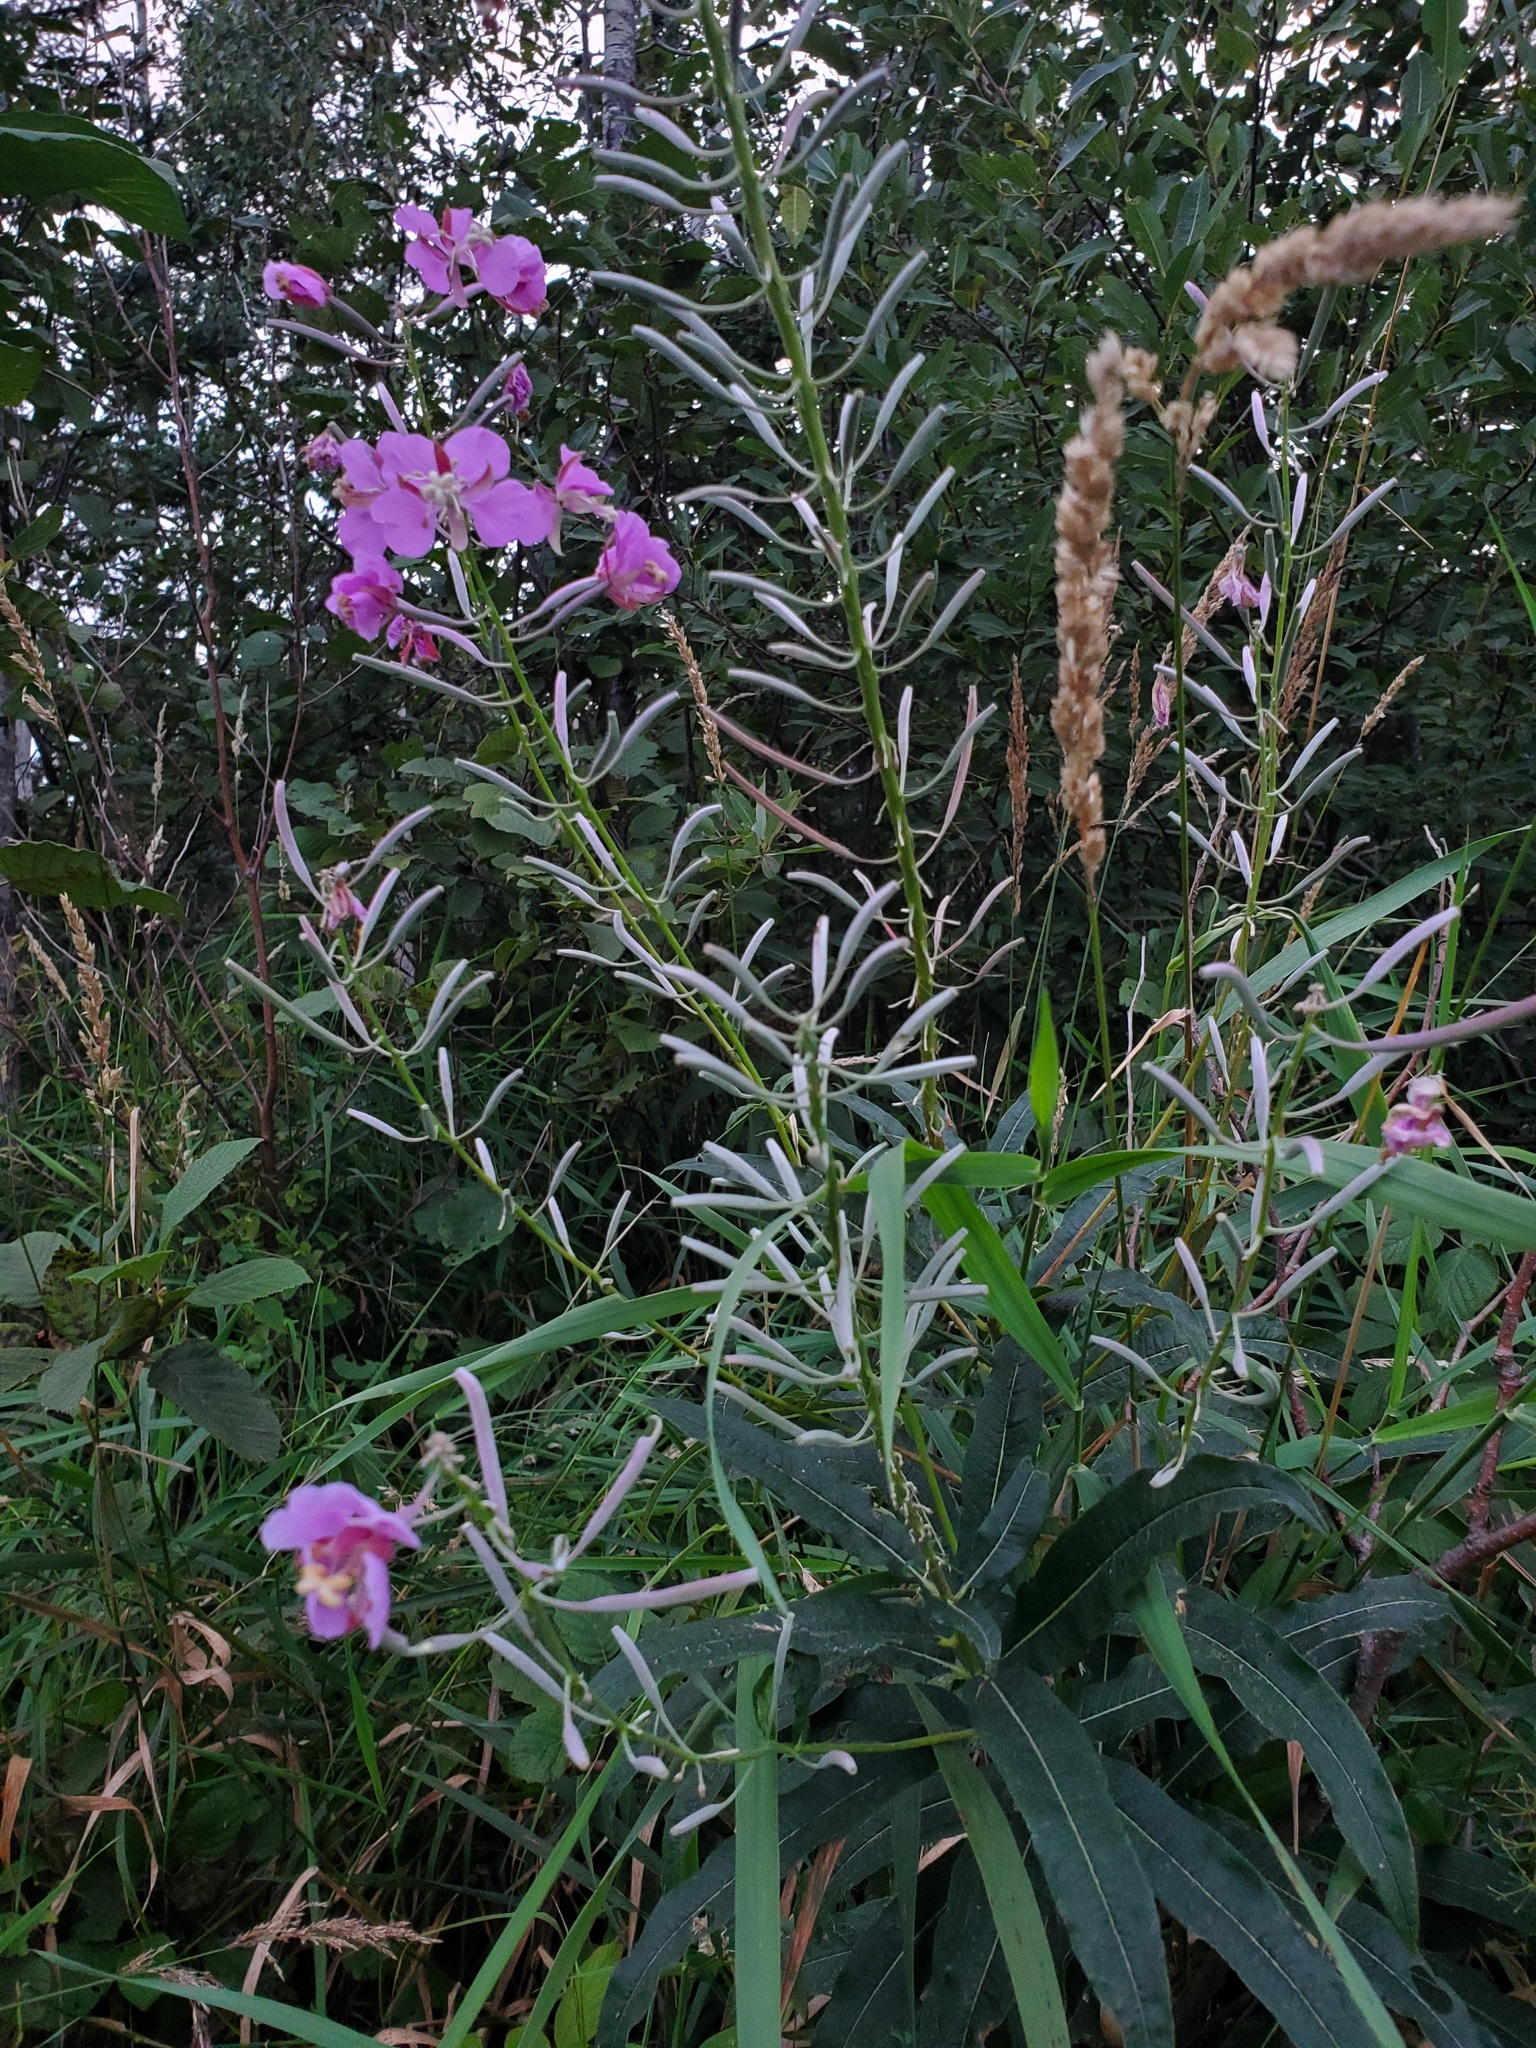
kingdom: Plantae
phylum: Tracheophyta
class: Magnoliopsida
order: Myrtales
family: Onagraceae
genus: Chamaenerion
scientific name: Chamaenerion angustifolium
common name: Fireweed
